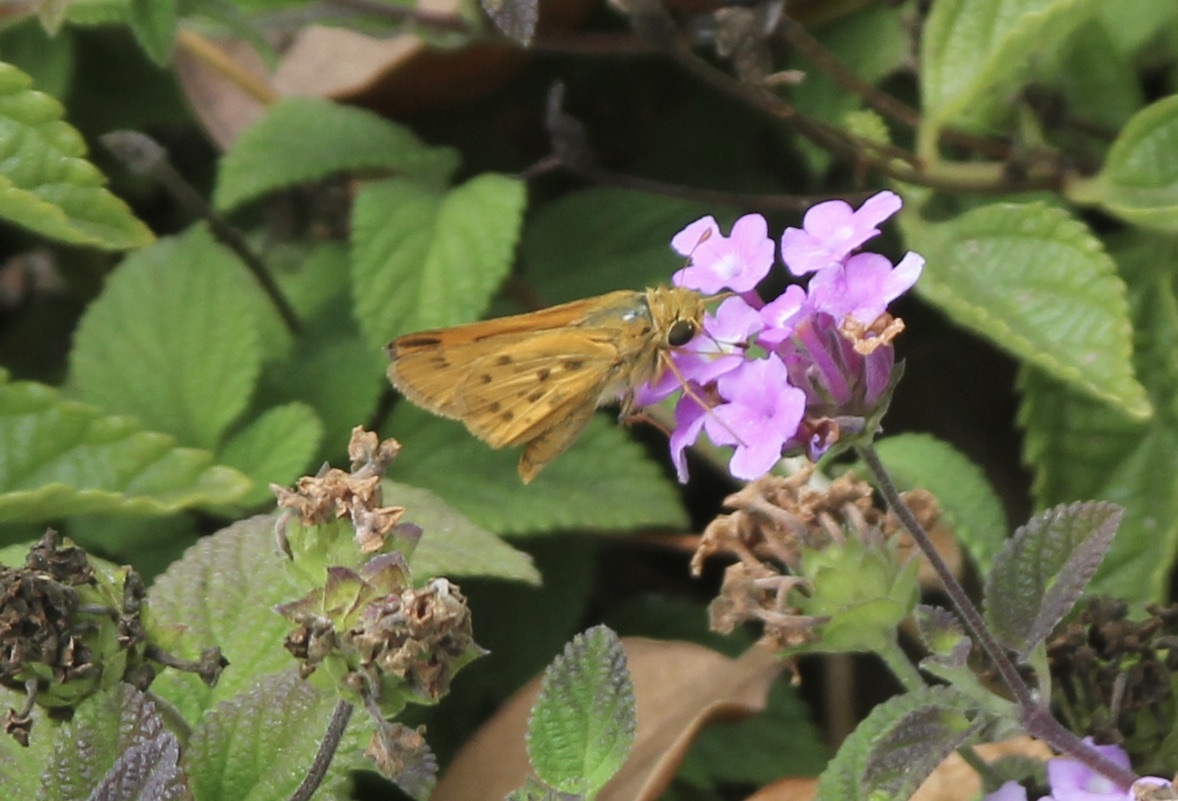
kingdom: Animalia
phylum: Arthropoda
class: Insecta
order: Lepidoptera
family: Hesperiidae
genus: Hylephila
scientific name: Hylephila phyleus
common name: Fiery skipper
